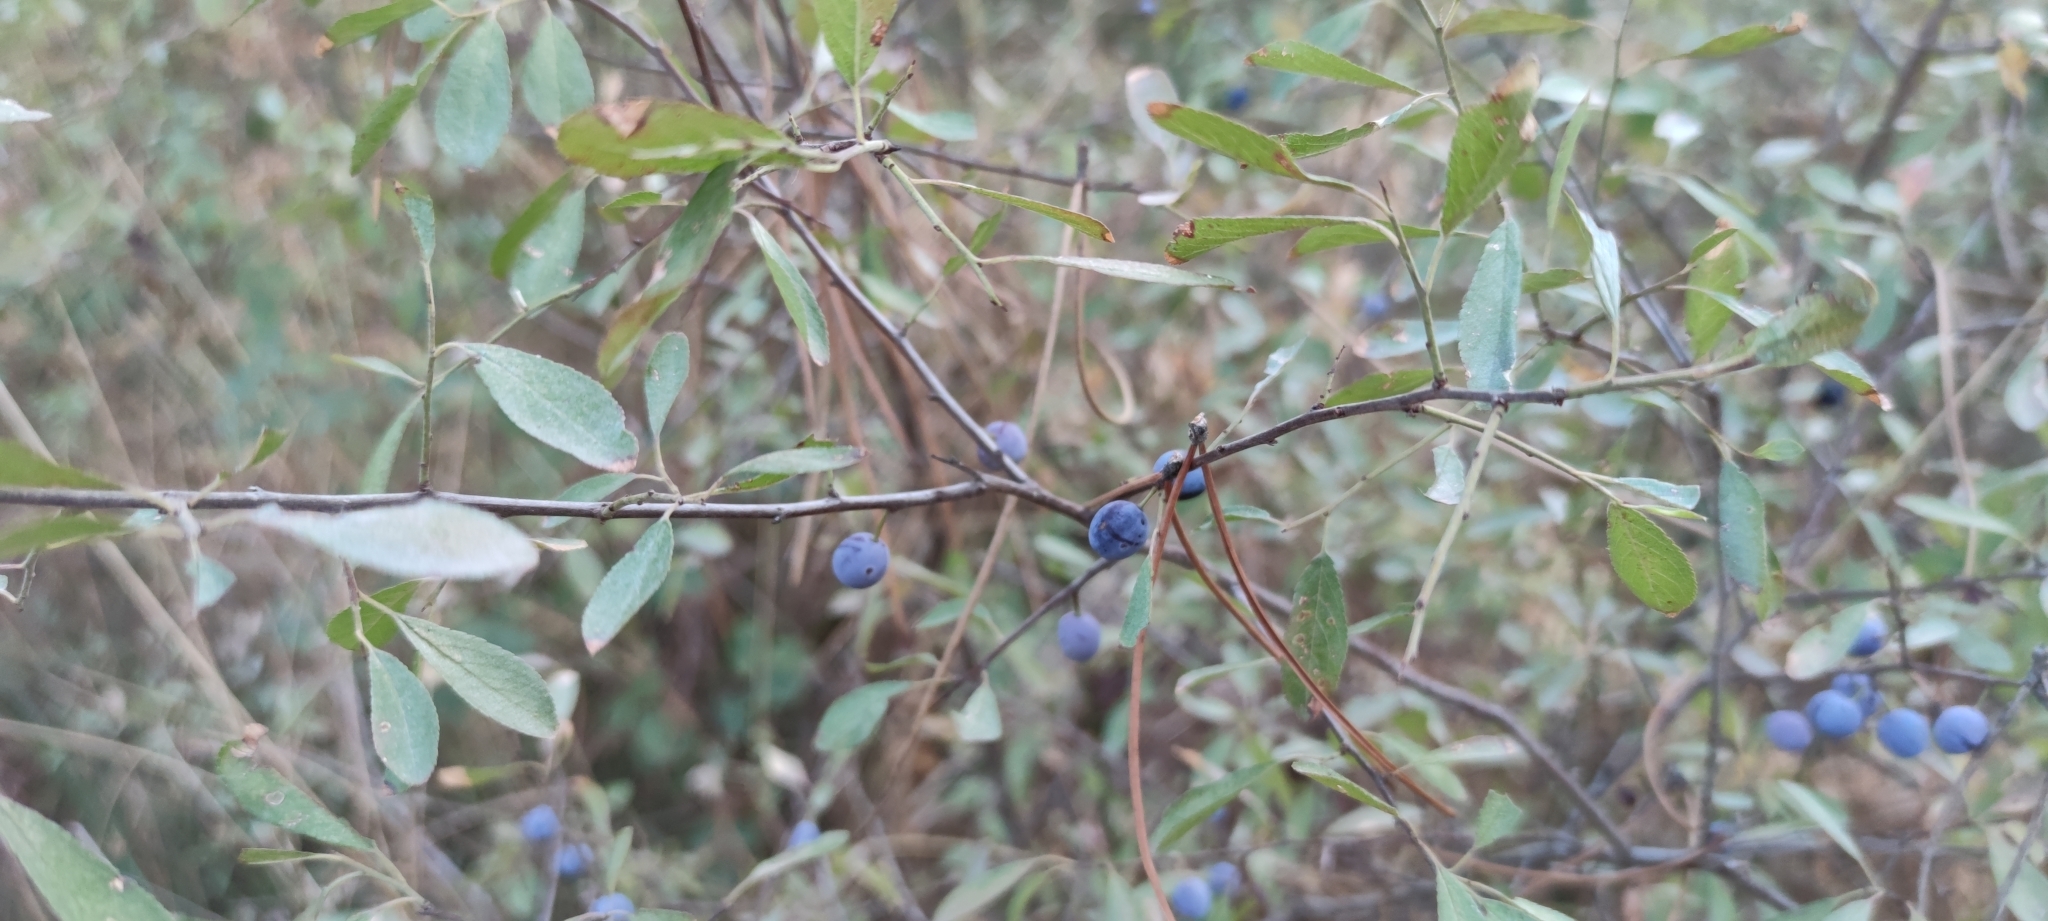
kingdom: Plantae
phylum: Tracheophyta
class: Magnoliopsida
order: Rosales
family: Rosaceae
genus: Prunus
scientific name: Prunus spinosa
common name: Blackthorn
